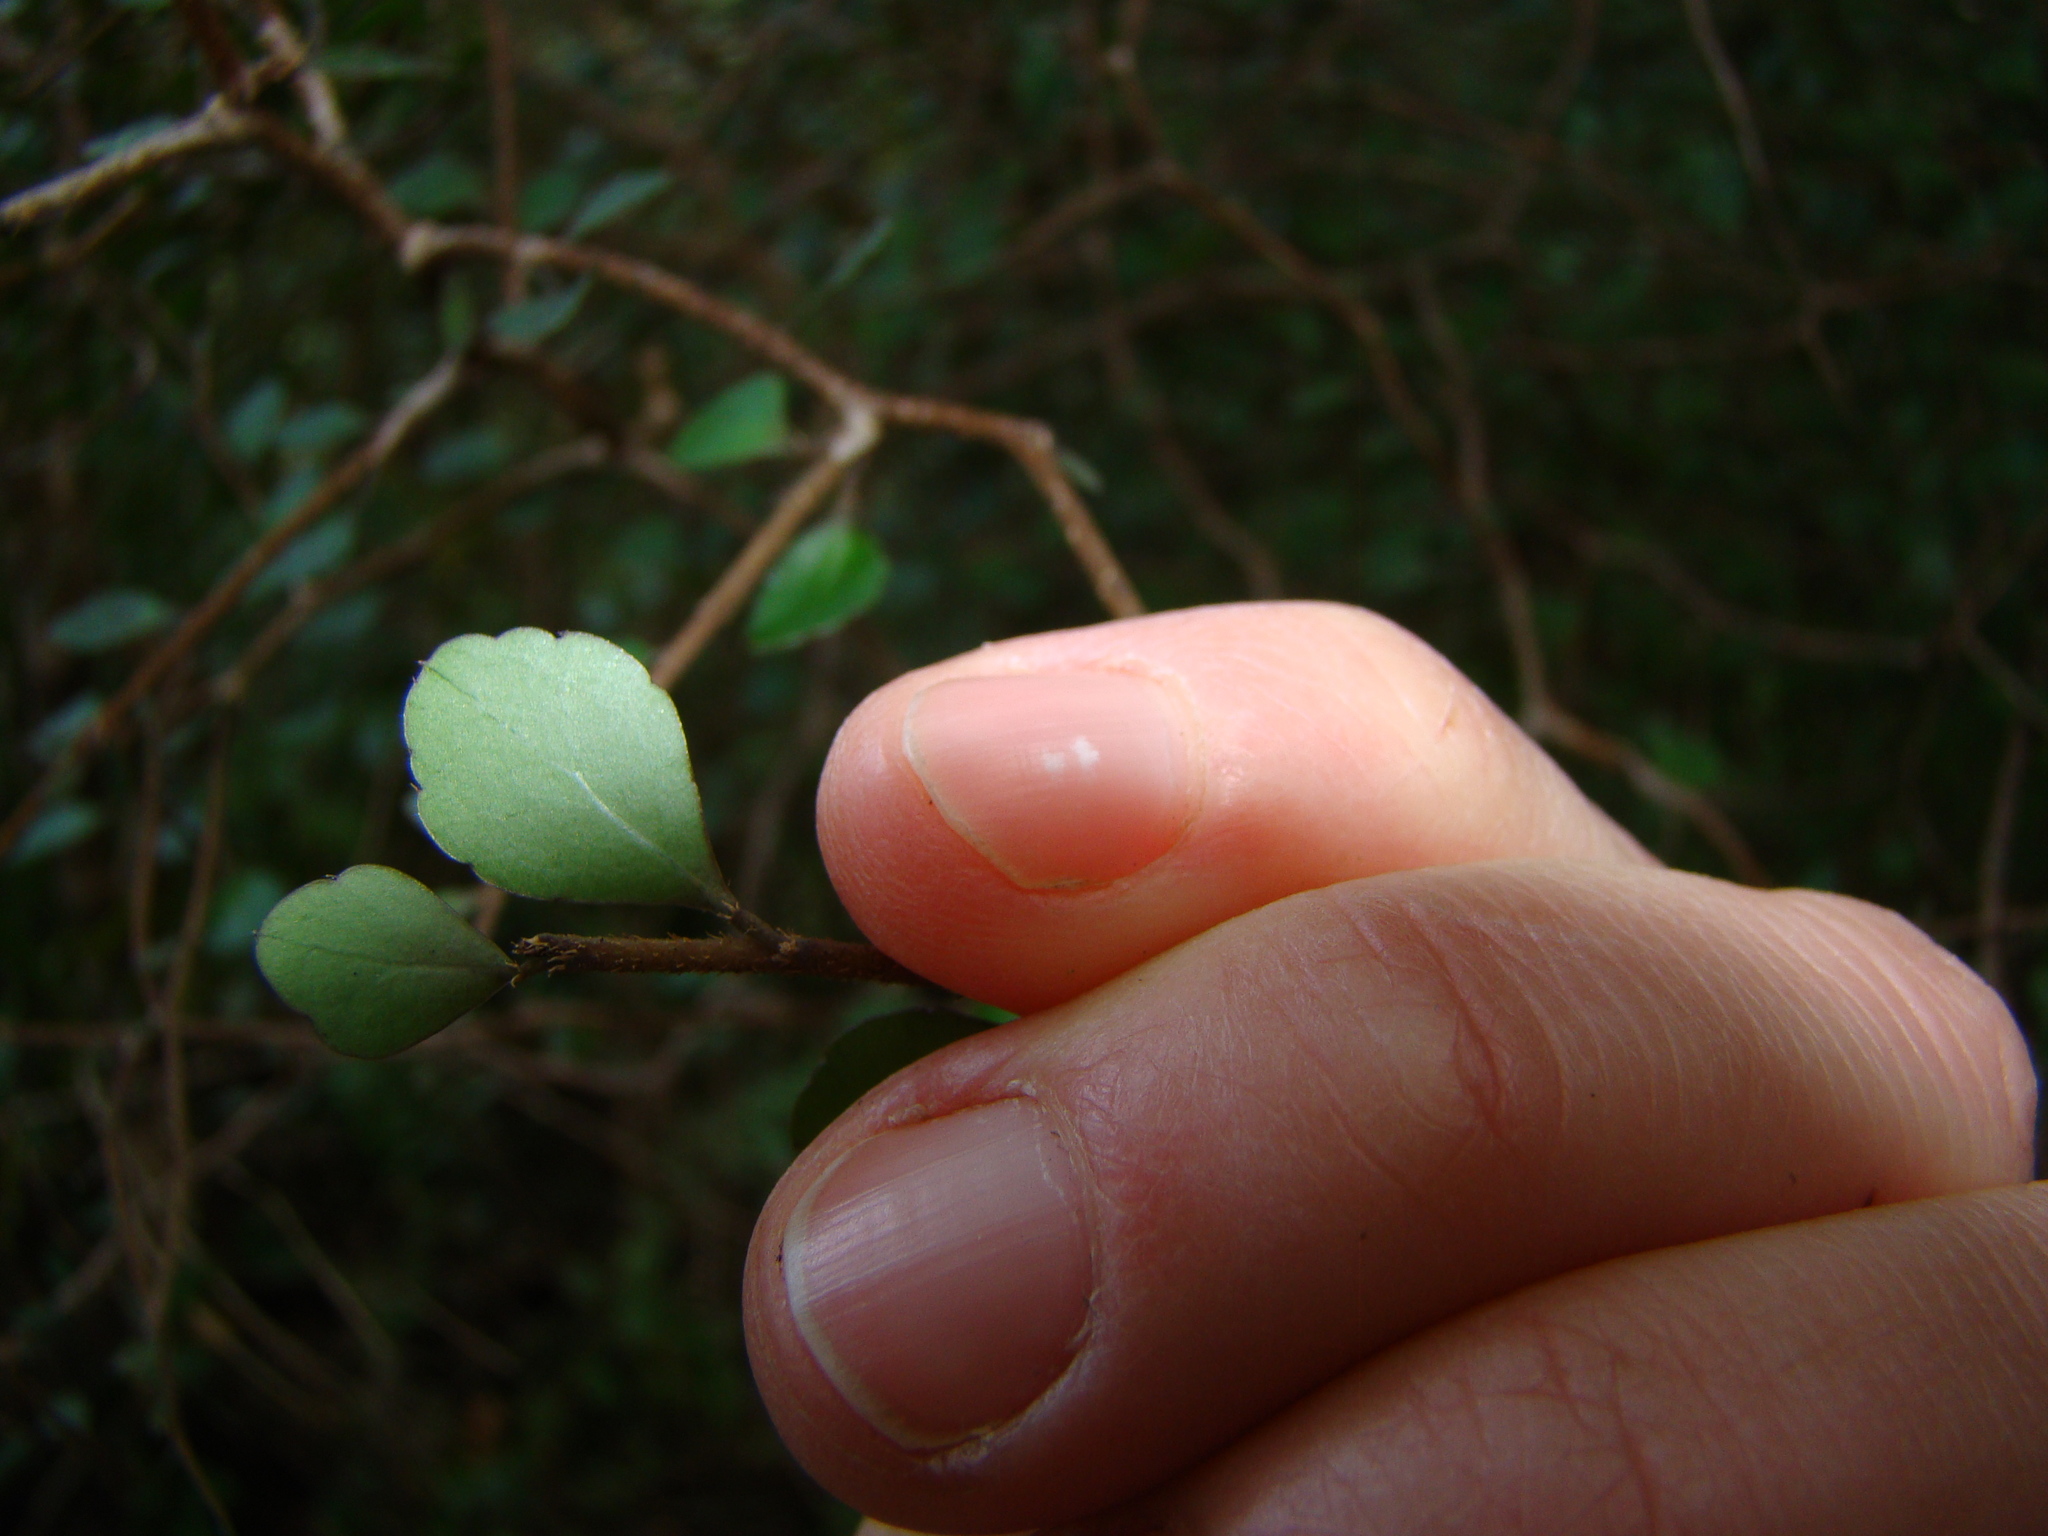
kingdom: Plantae
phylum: Tracheophyta
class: Magnoliopsida
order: Apiales
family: Araliaceae
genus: Raukaua
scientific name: Raukaua anomalus
